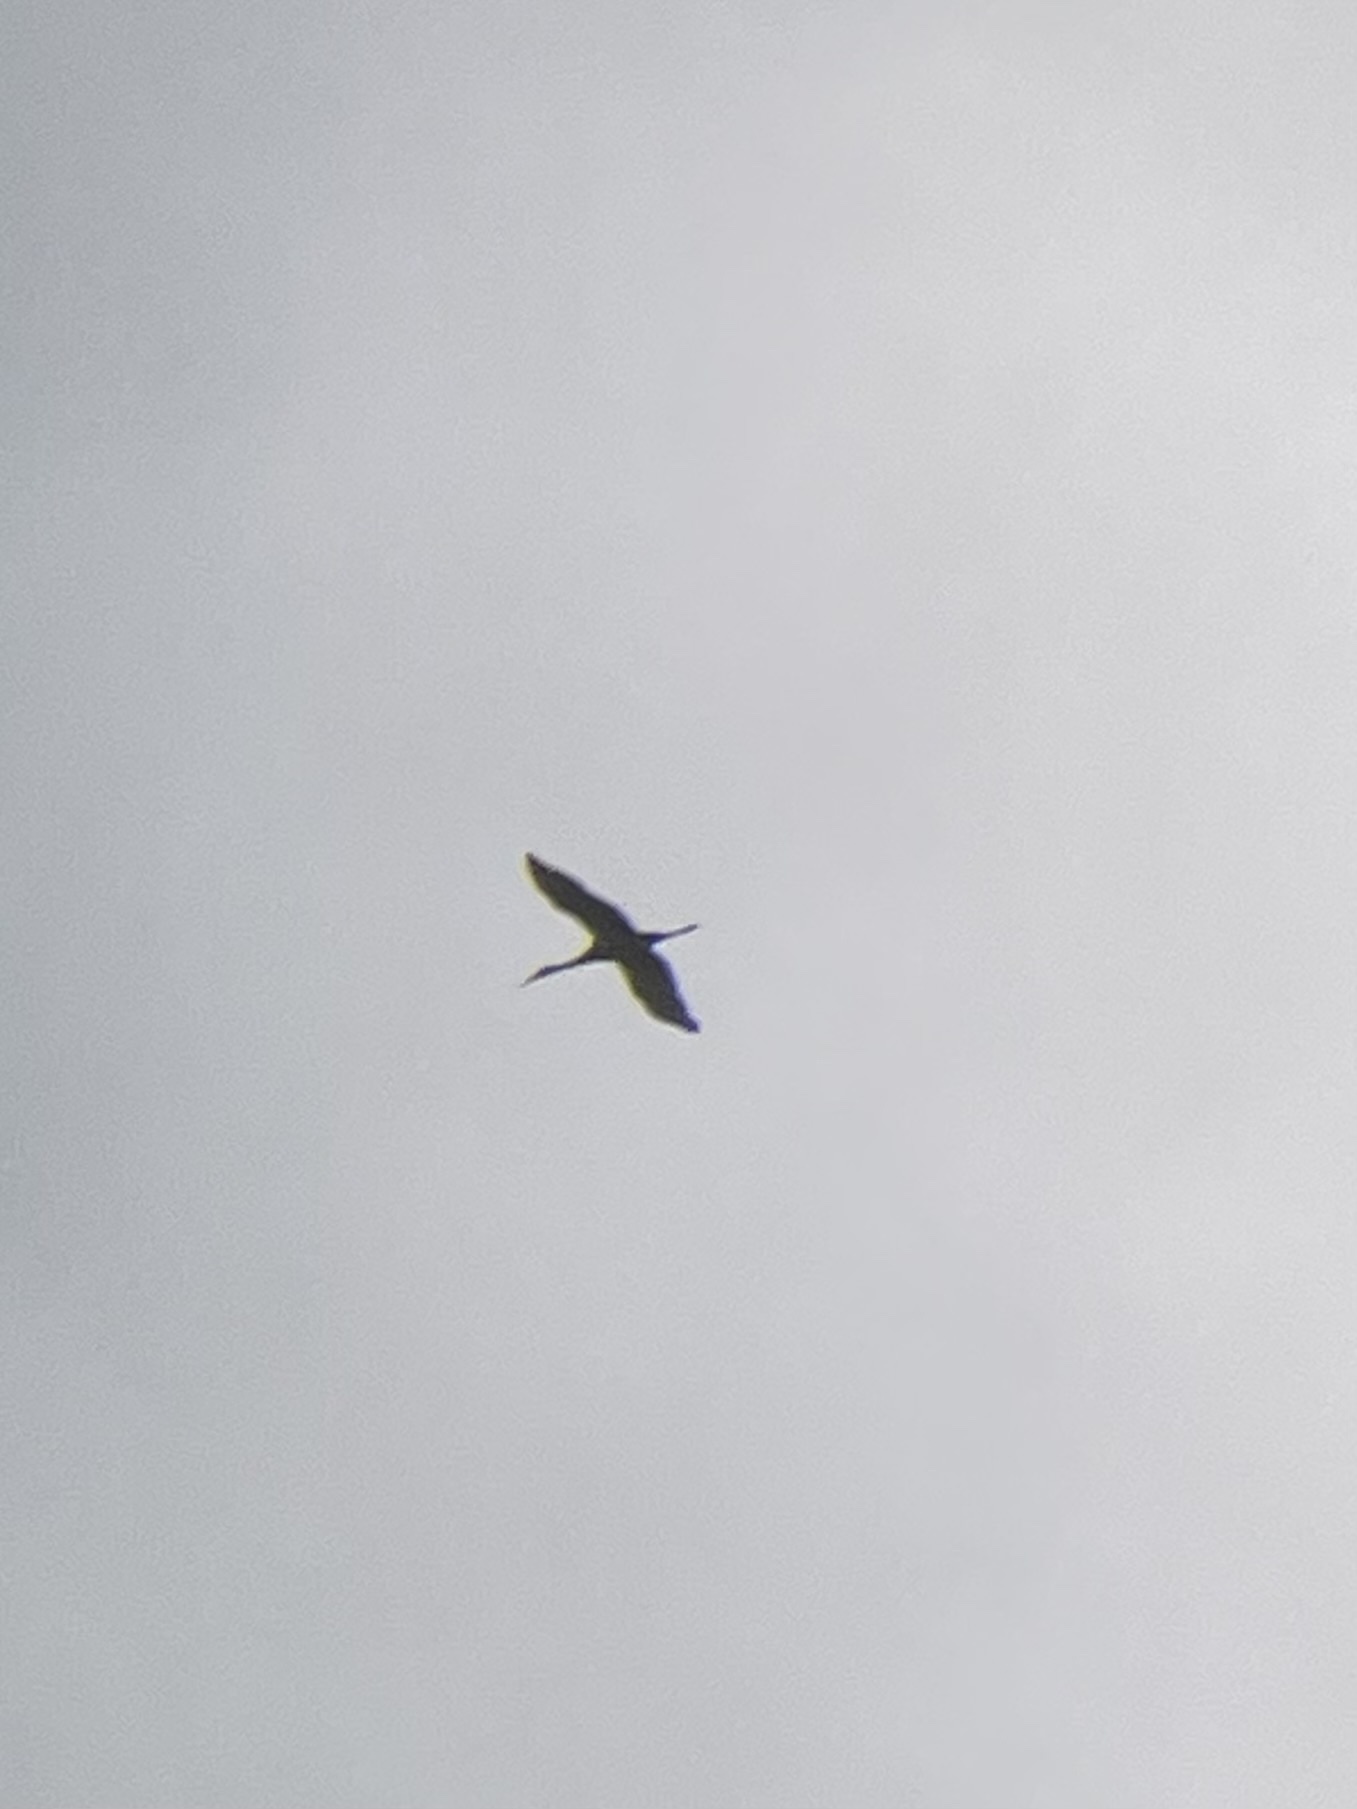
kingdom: Animalia
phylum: Chordata
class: Aves
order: Gruiformes
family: Gruidae
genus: Grus
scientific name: Grus canadensis
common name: Sandhill crane
